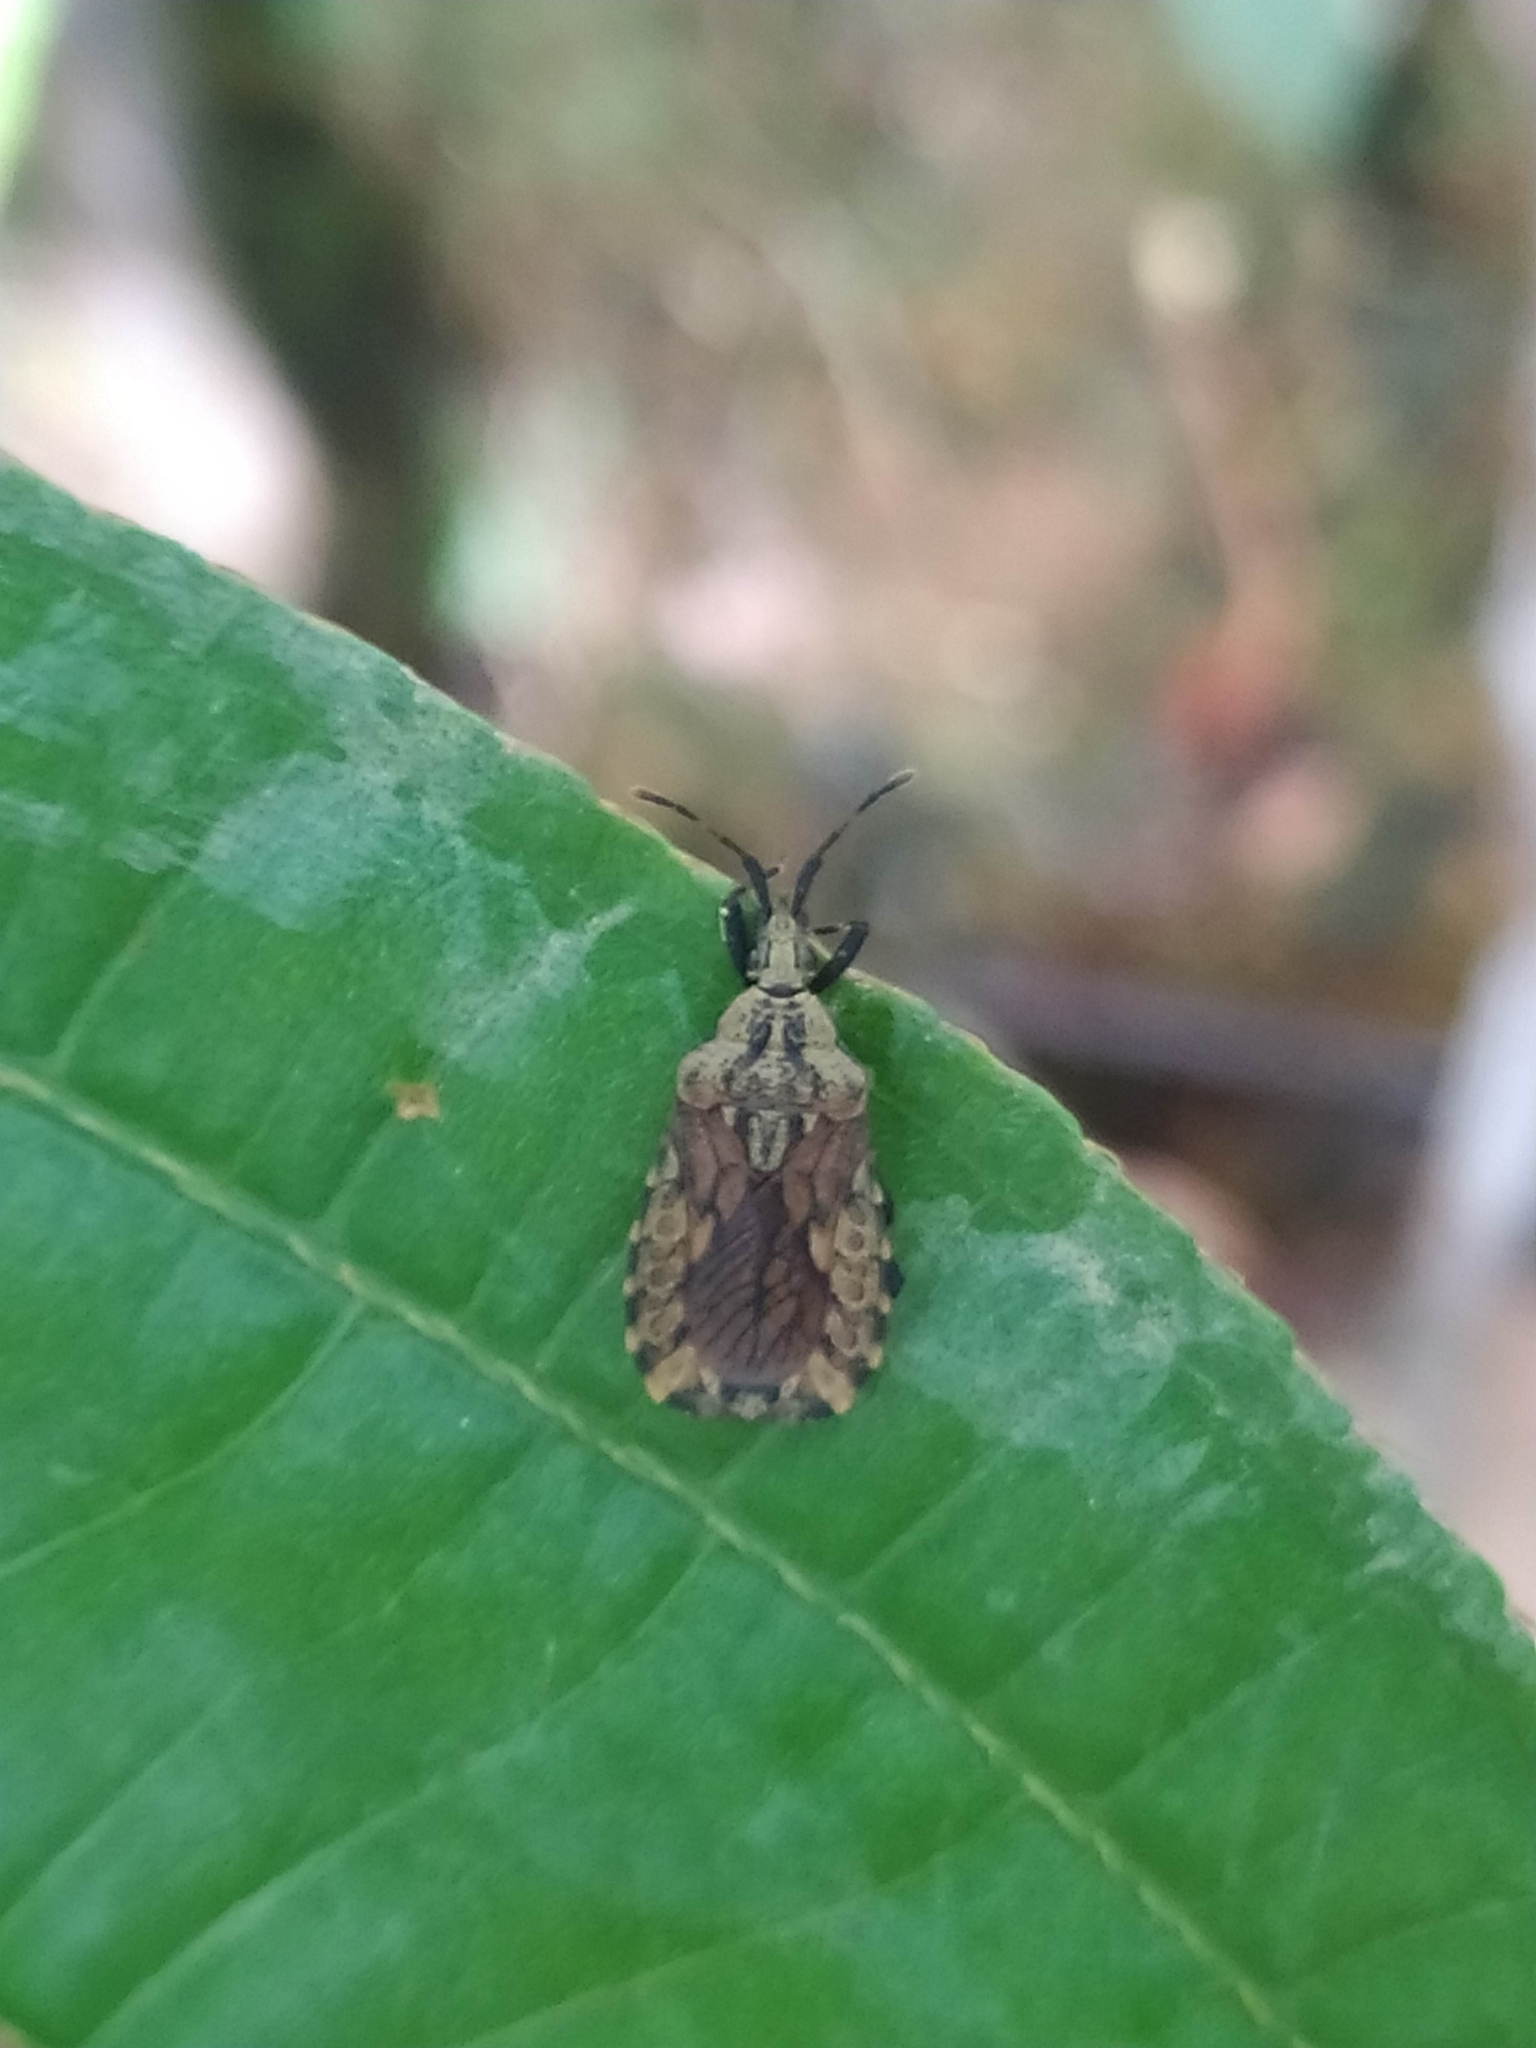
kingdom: Animalia
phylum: Arthropoda
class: Insecta
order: Hemiptera
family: Aradidae
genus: Hesus
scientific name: Hesus cordatus
